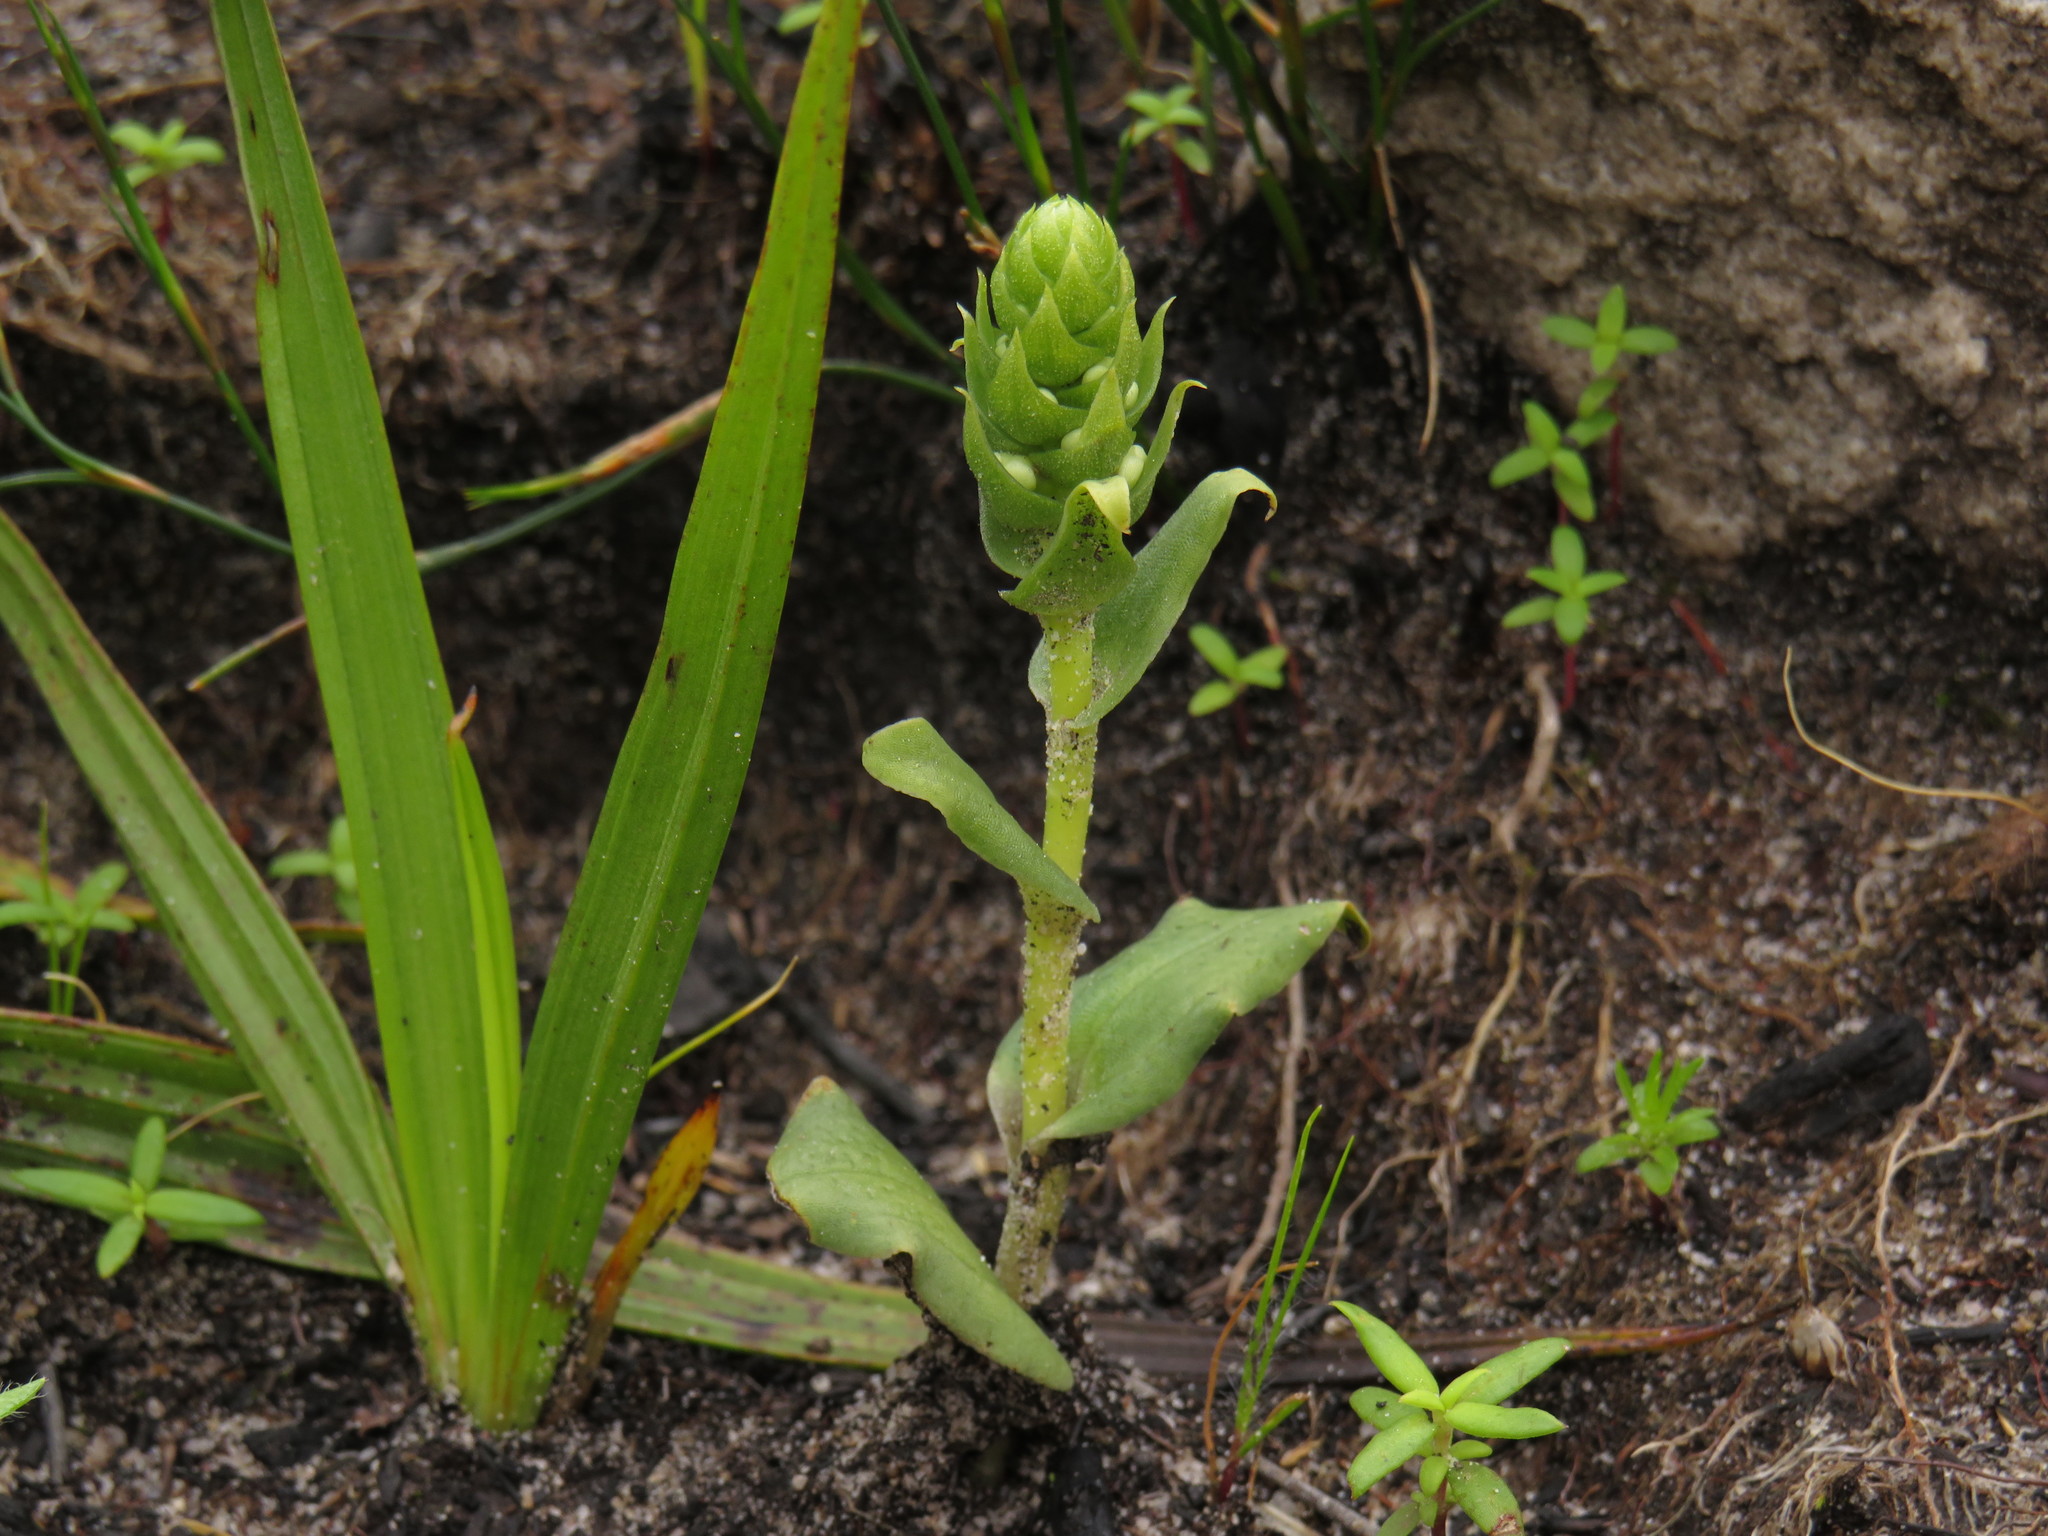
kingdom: Plantae
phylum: Tracheophyta
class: Liliopsida
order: Asparagales
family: Orchidaceae
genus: Satyrium
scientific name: Satyrium bicallosum
